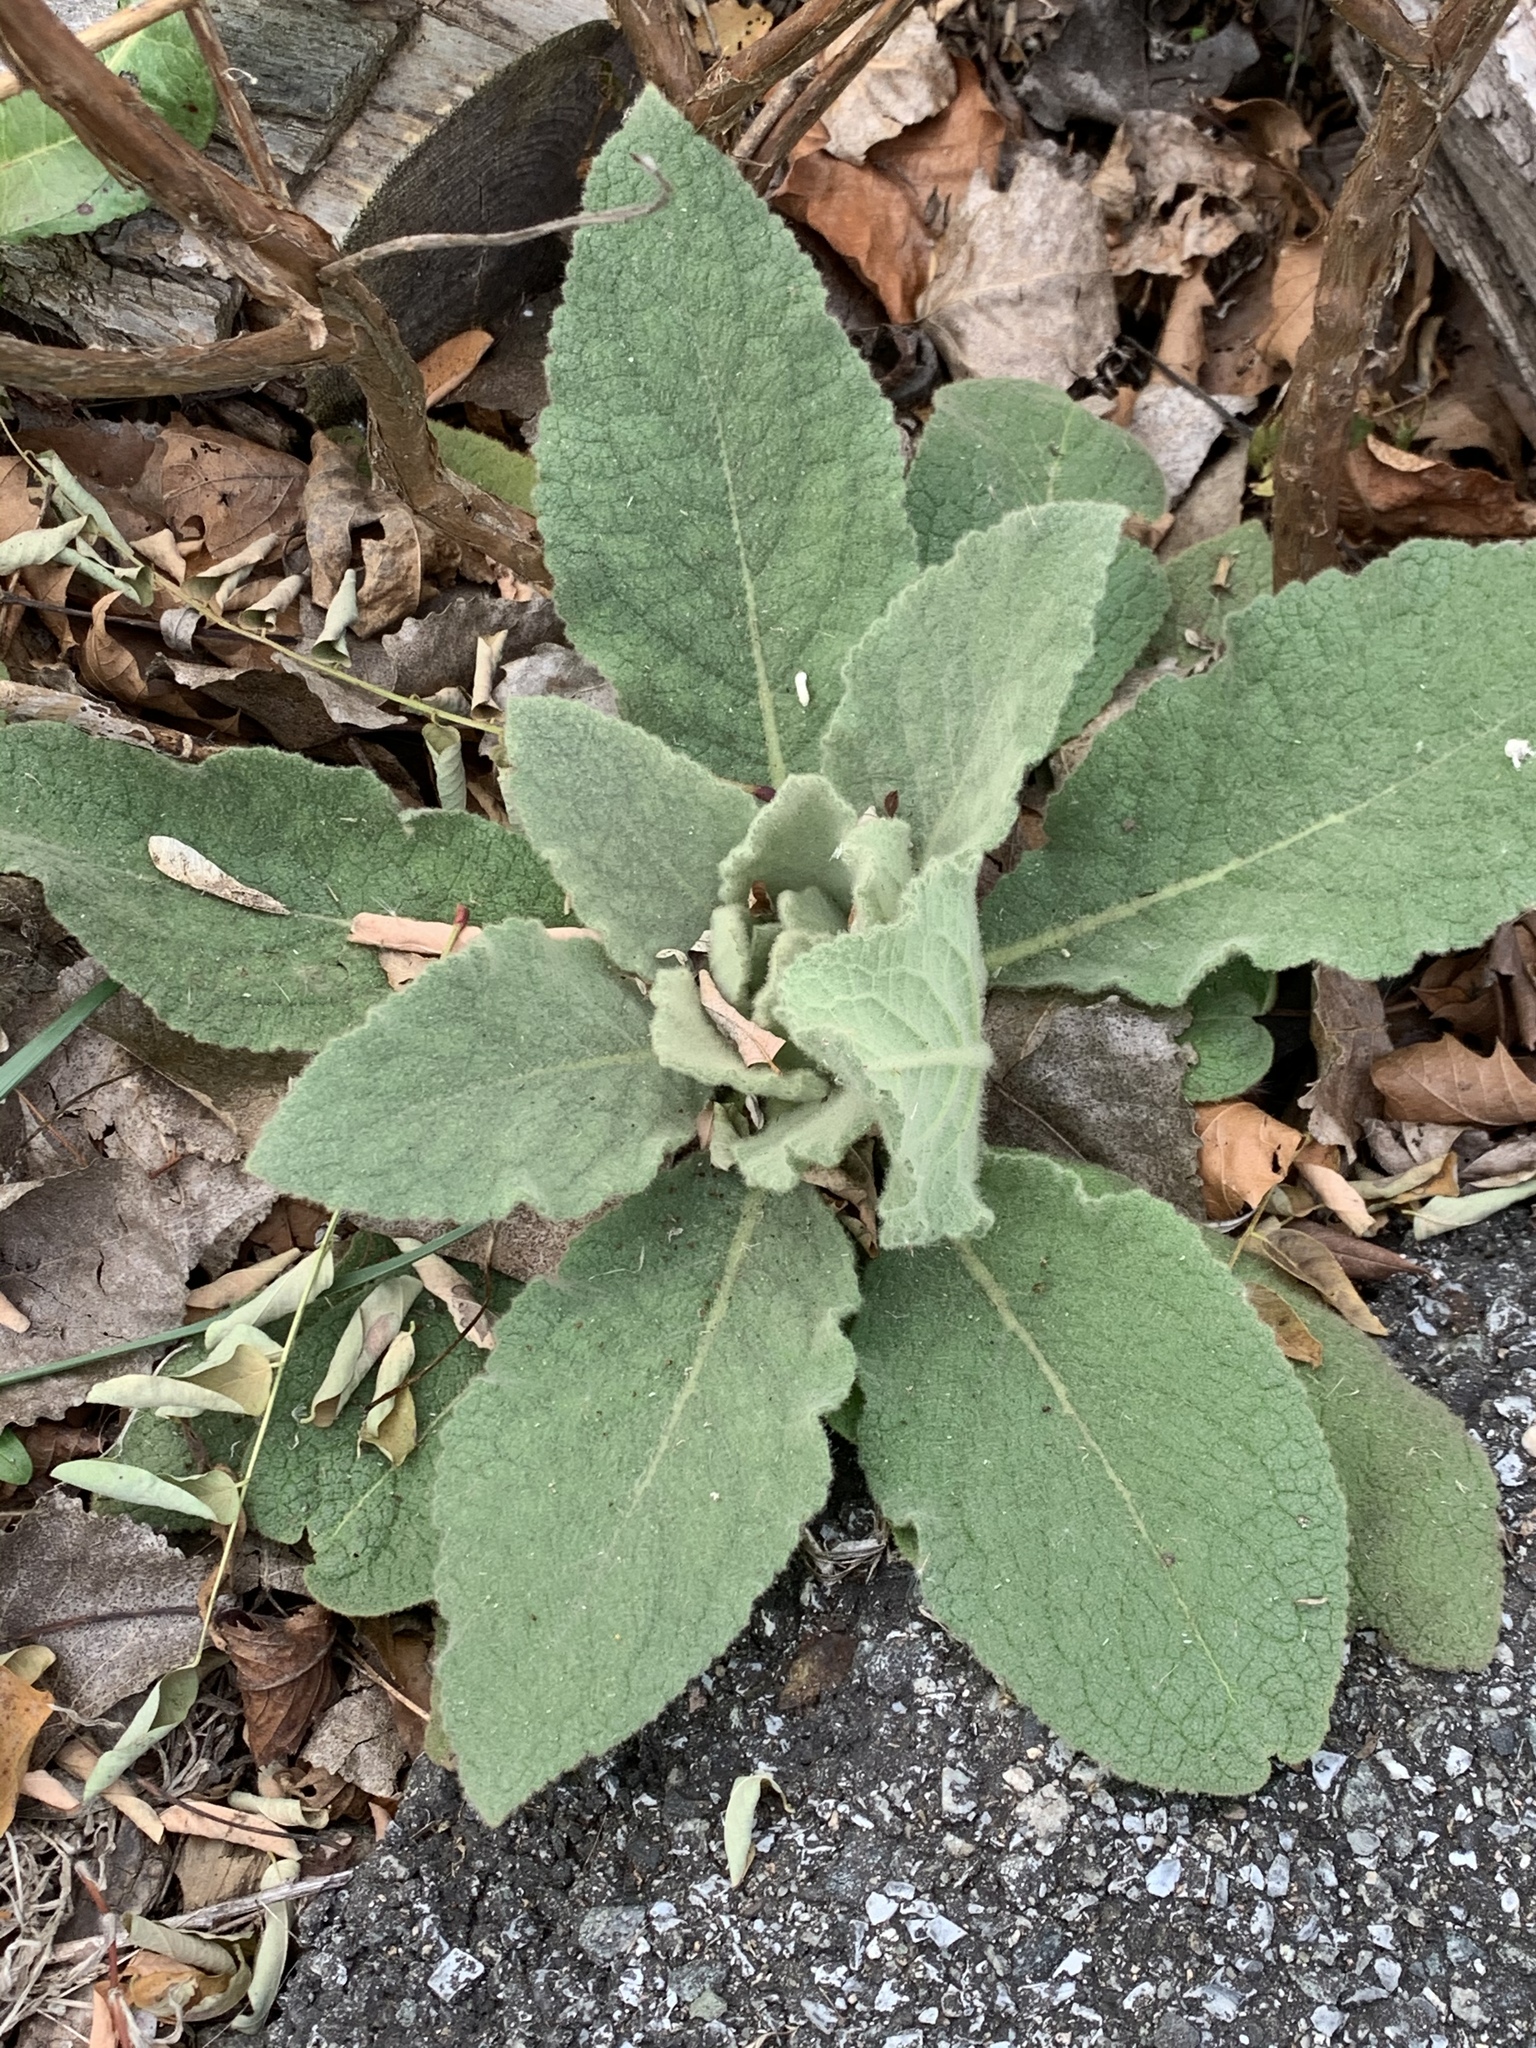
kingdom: Plantae
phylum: Tracheophyta
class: Magnoliopsida
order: Lamiales
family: Scrophulariaceae
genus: Verbascum
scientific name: Verbascum thapsus
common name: Common mullein
